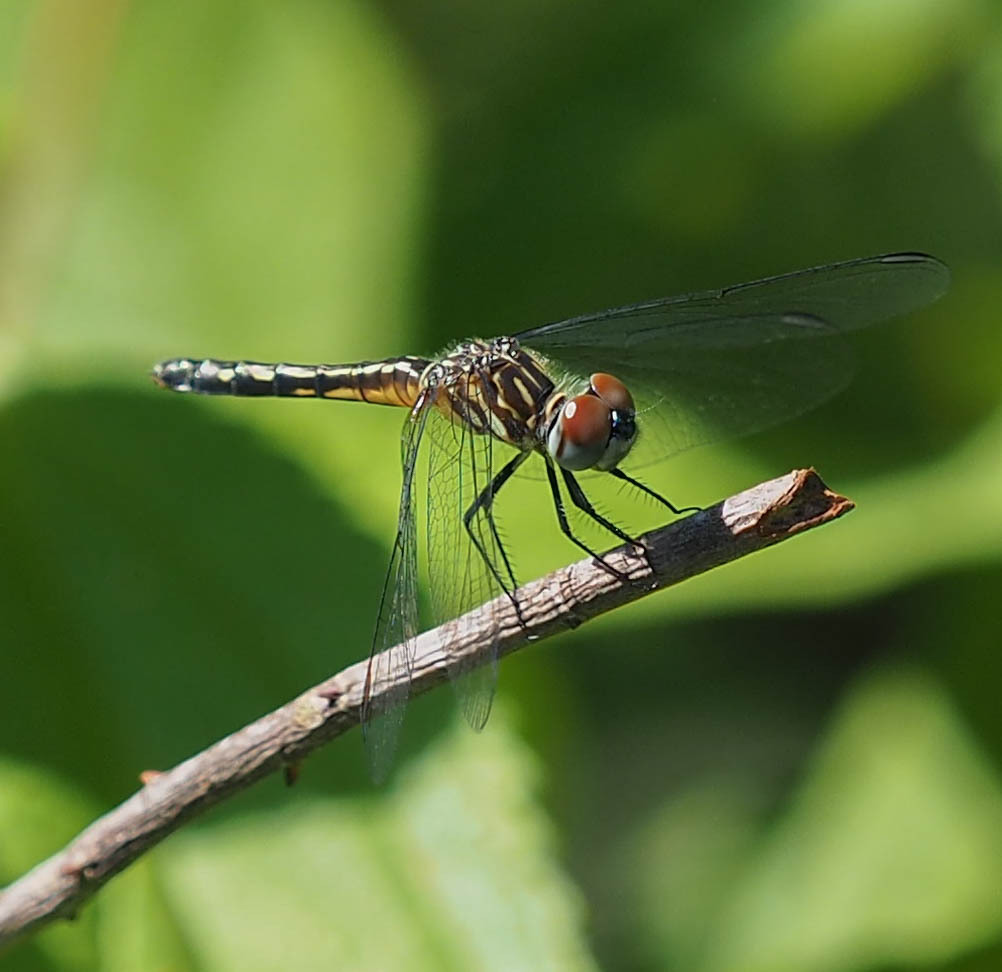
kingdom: Animalia
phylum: Arthropoda
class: Insecta
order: Odonata
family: Libellulidae
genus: Pachydiplax
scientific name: Pachydiplax longipennis
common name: Blue dasher
